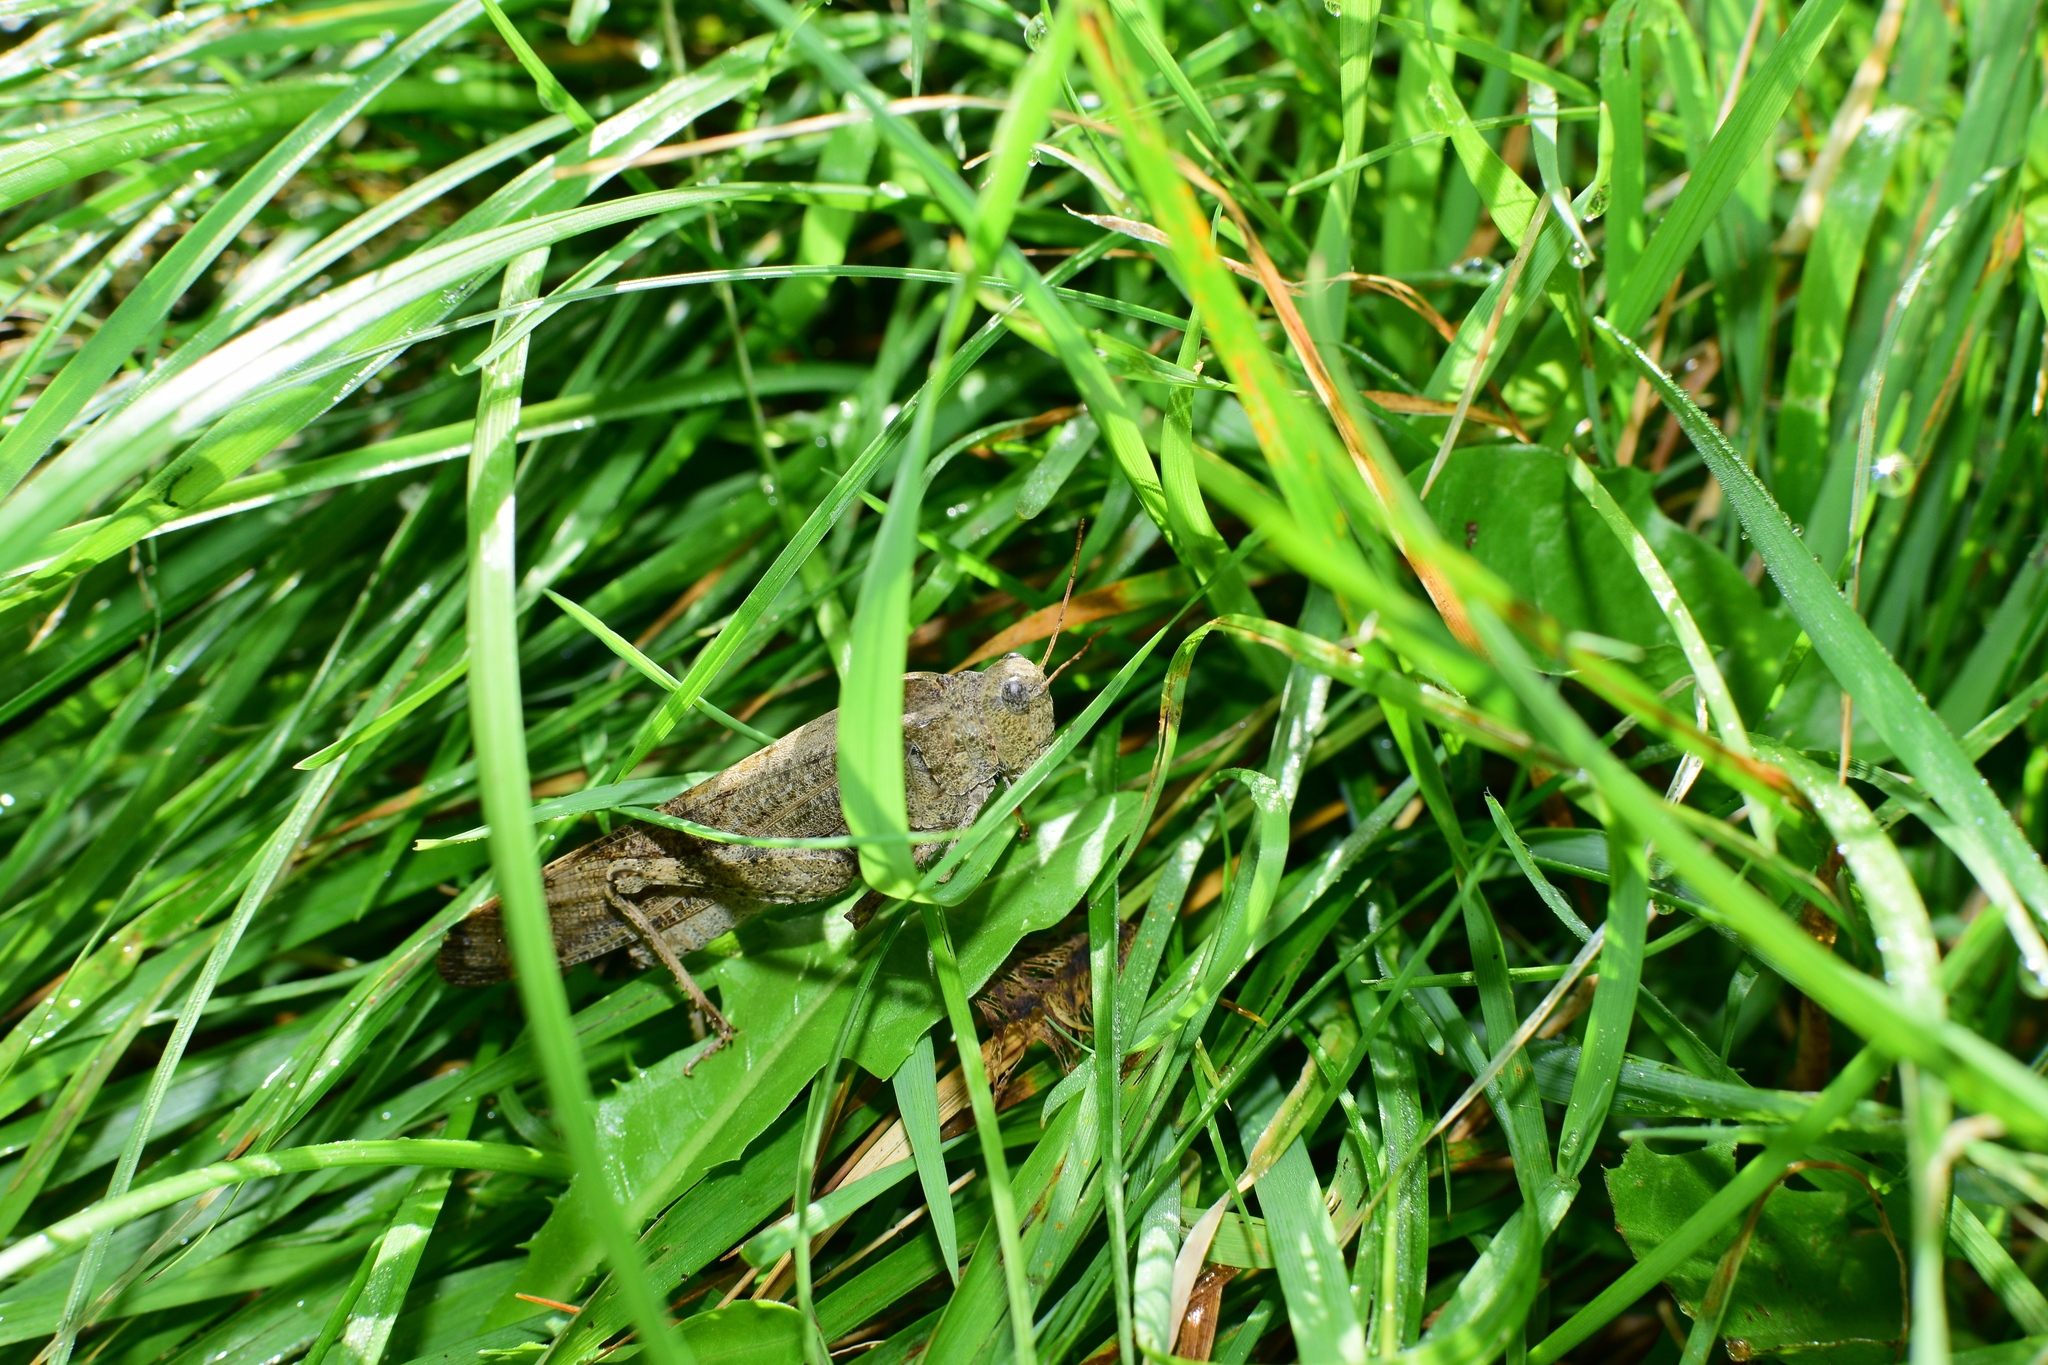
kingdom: Animalia
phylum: Arthropoda
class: Insecta
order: Orthoptera
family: Acrididae
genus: Dissosteira
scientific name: Dissosteira carolina
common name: Carolina grasshopper
